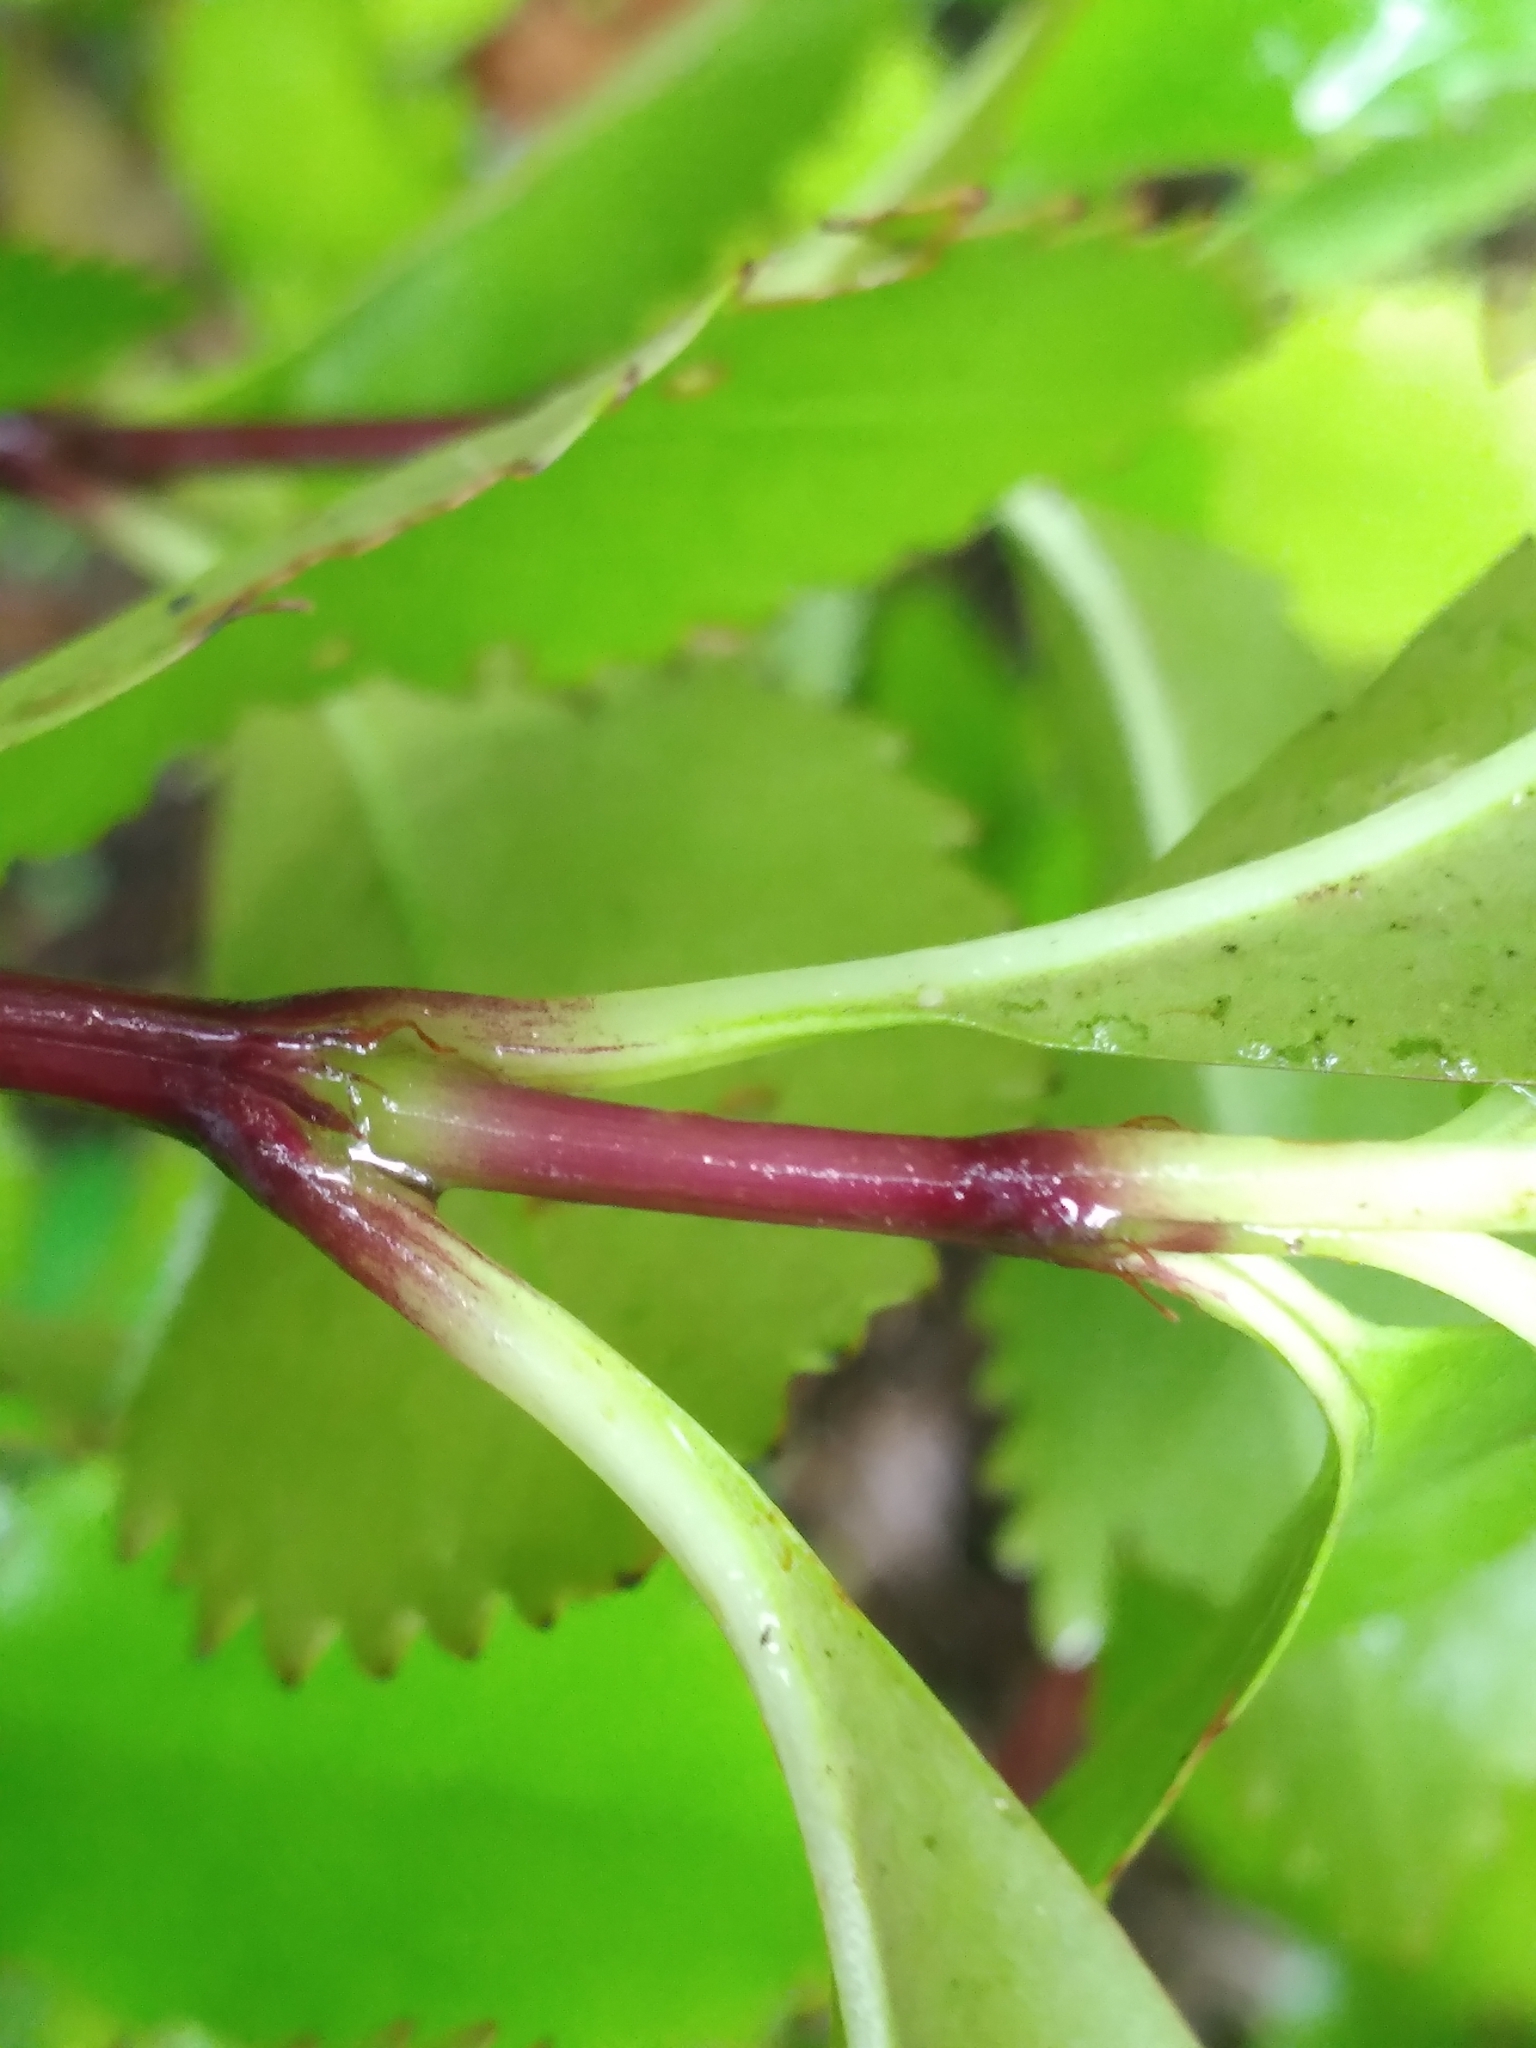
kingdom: Plantae
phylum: Tracheophyta
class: Magnoliopsida
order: Chloranthales
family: Chloranthaceae
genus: Ascarina
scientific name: Ascarina lucida
